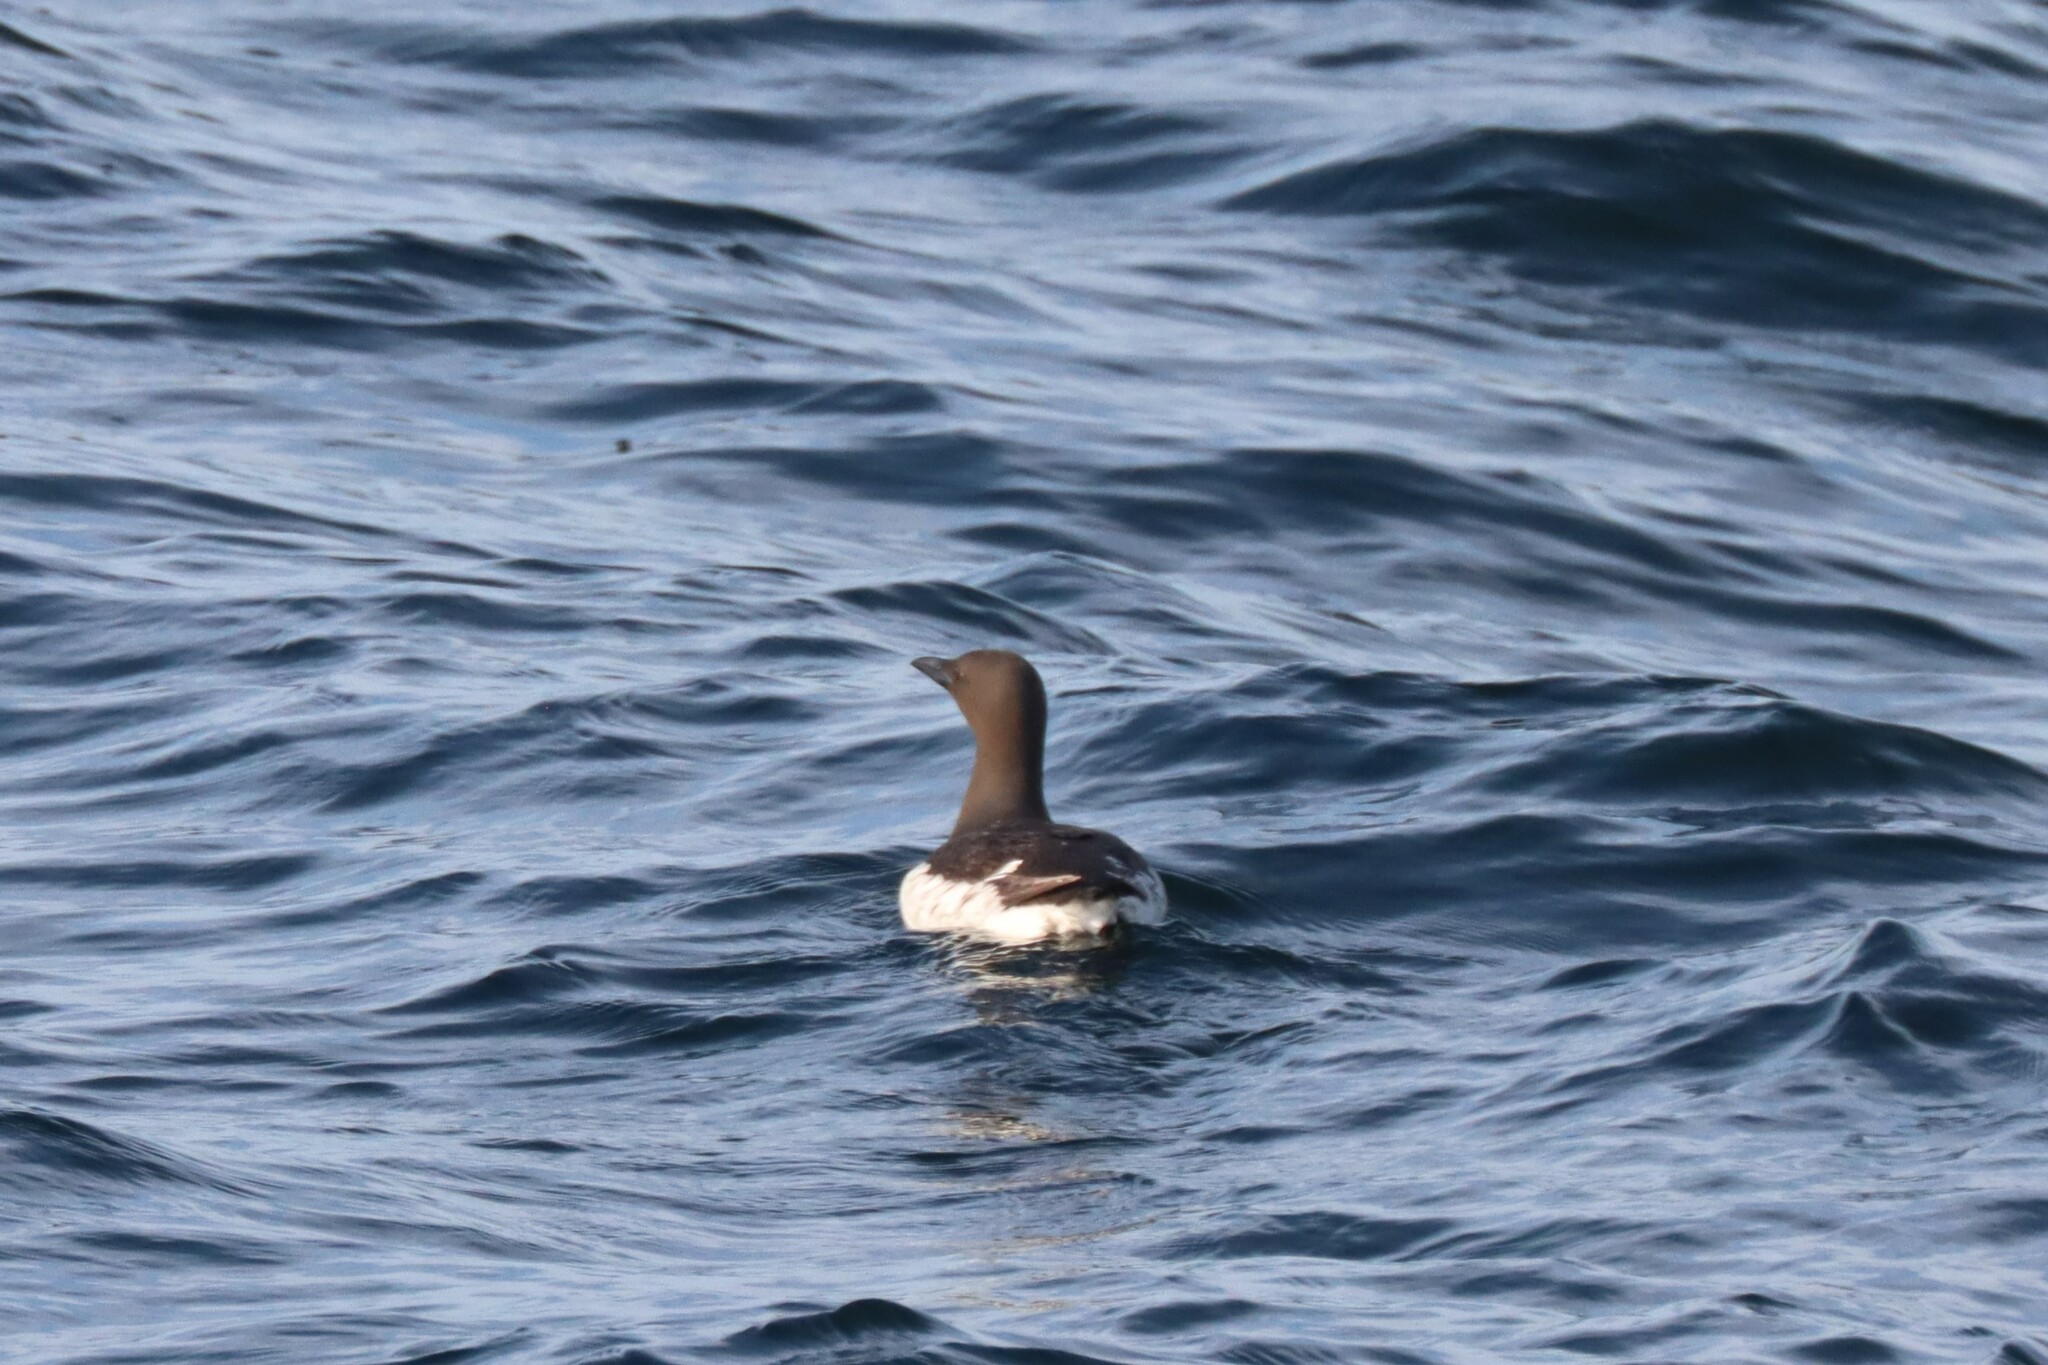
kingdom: Animalia
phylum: Chordata
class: Aves
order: Charadriiformes
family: Alcidae
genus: Uria
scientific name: Uria aalge
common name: Common murre
